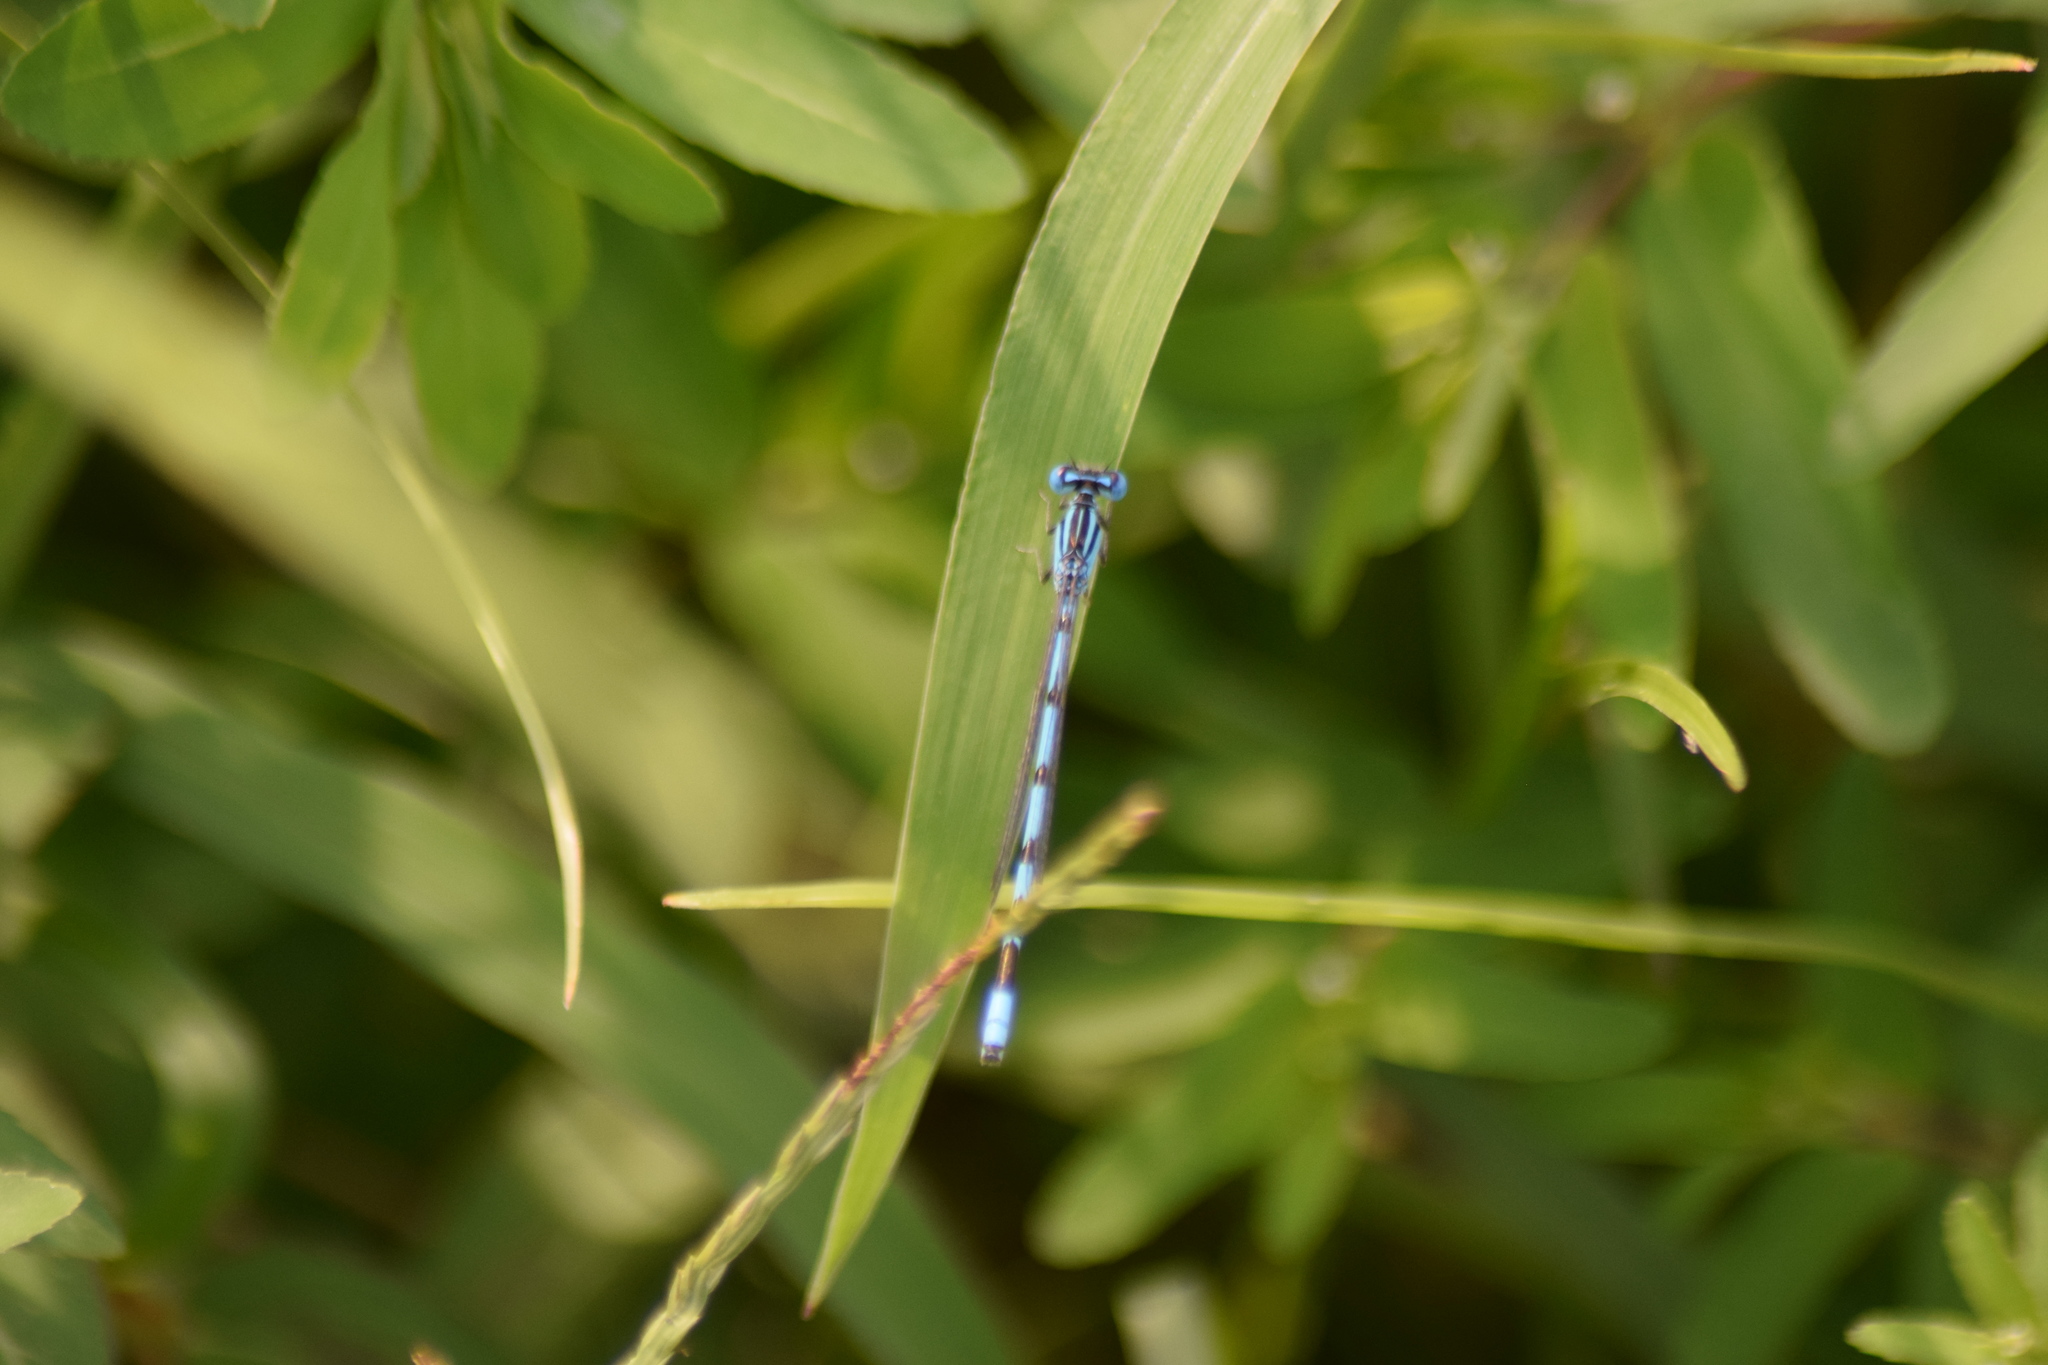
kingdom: Animalia
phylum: Arthropoda
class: Insecta
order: Odonata
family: Coenagrionidae
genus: Enallagma
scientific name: Enallagma durum
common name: Big bluet
